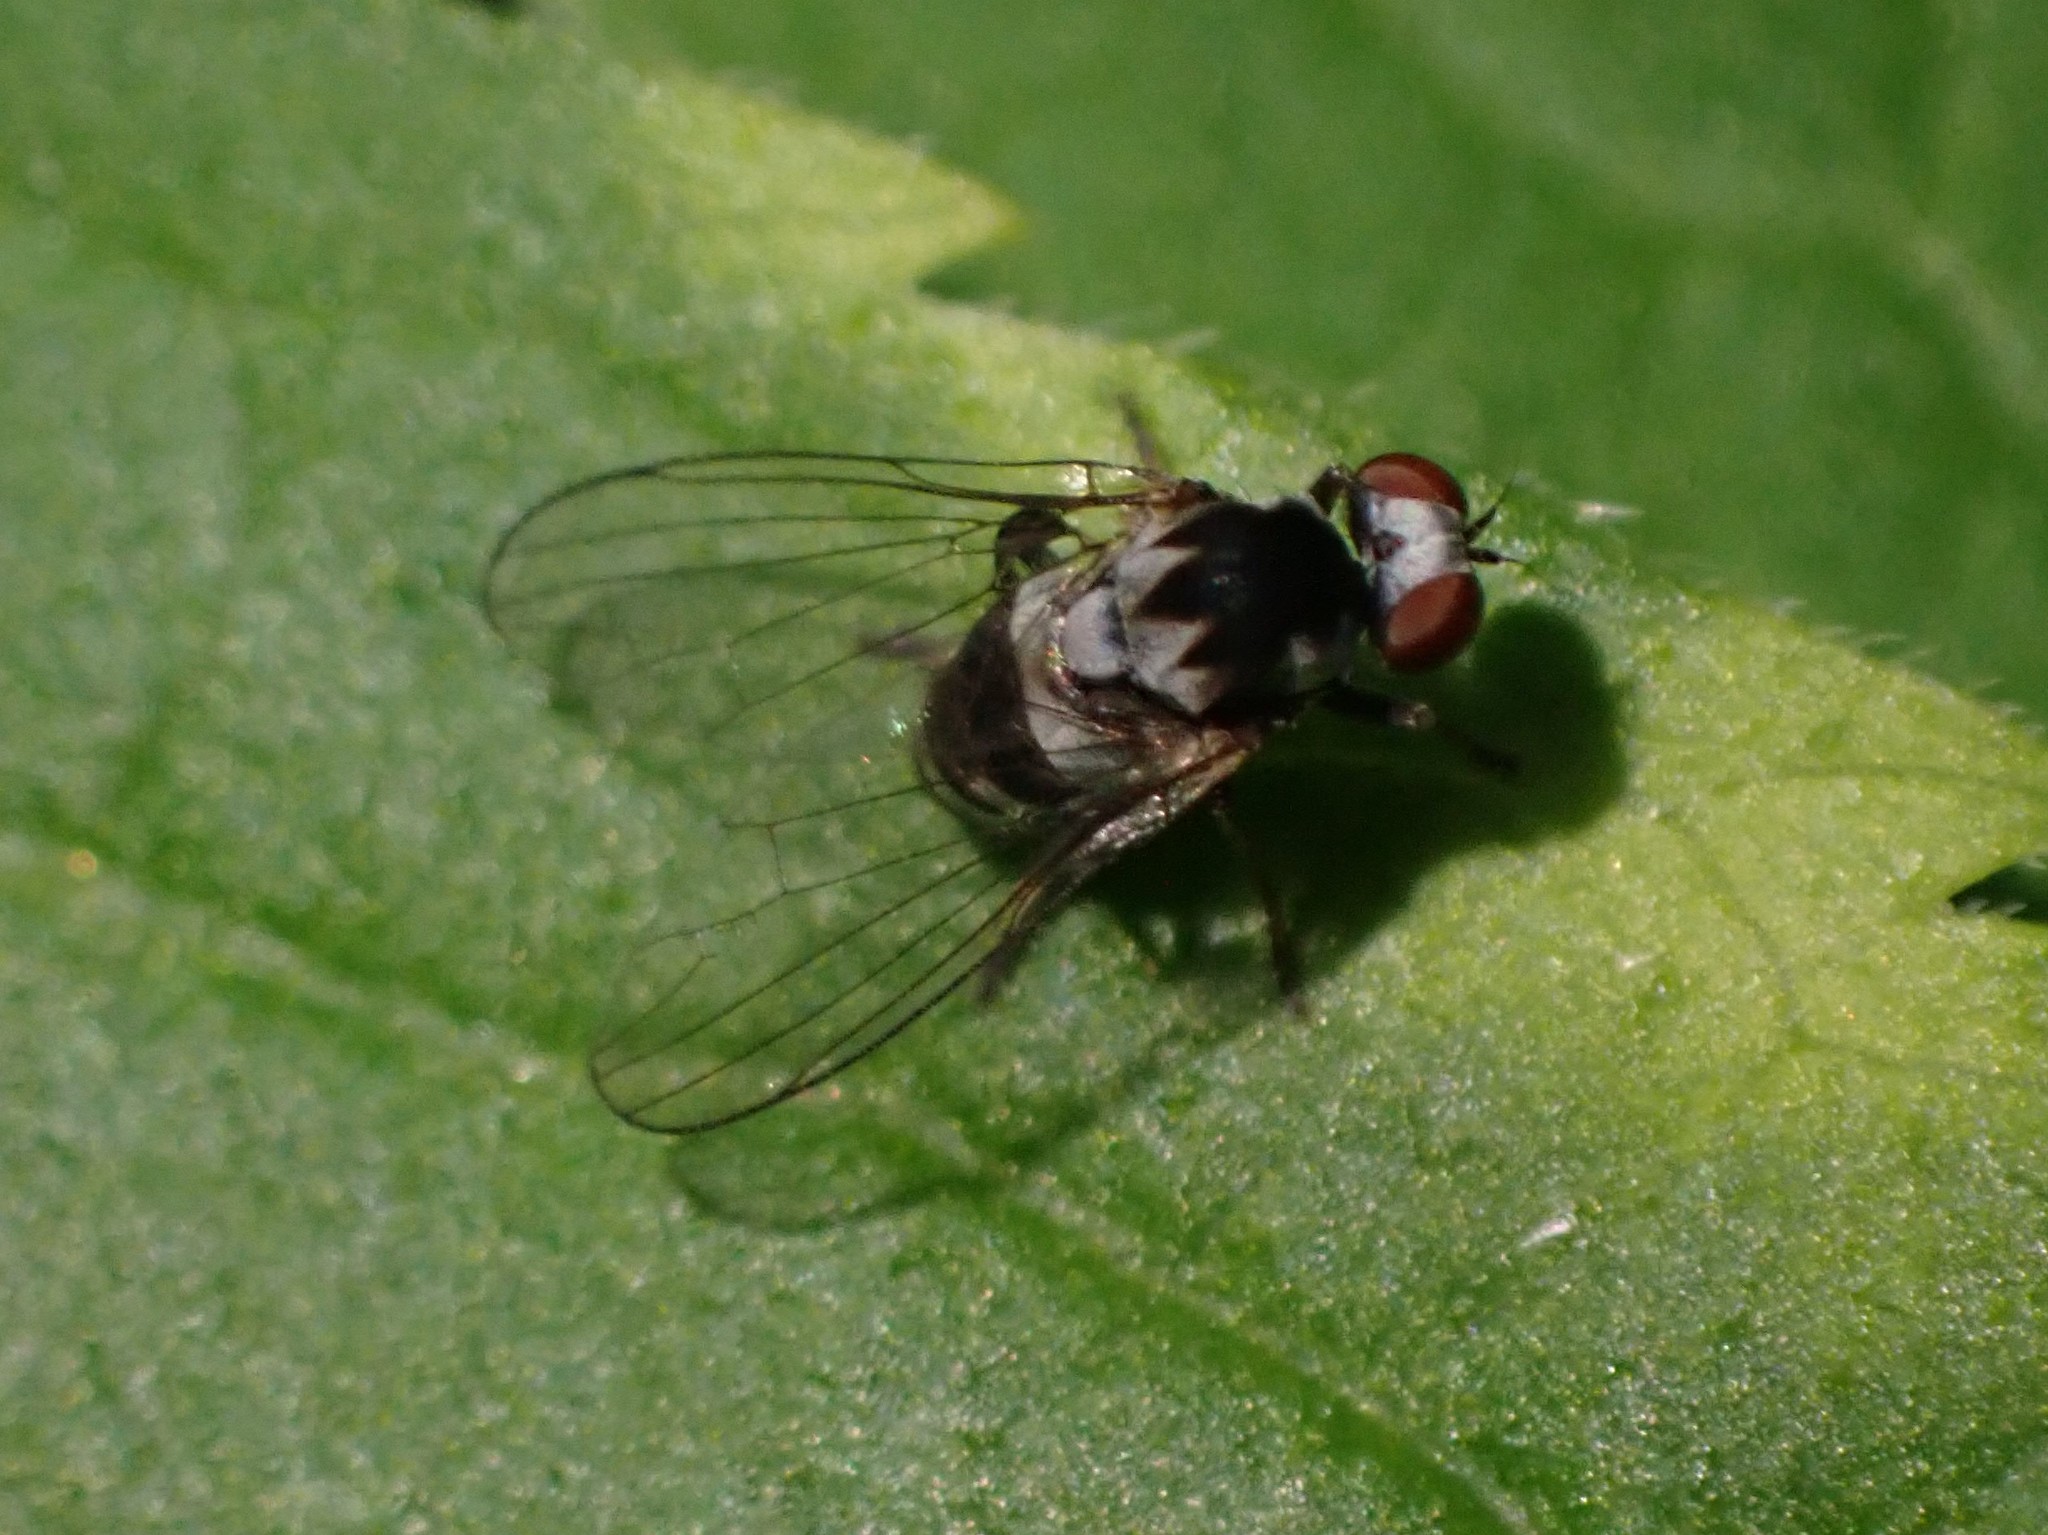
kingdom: Animalia
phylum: Arthropoda
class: Insecta
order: Diptera
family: Platypezidae
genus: Polyporivora
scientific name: Polyporivora polypori
